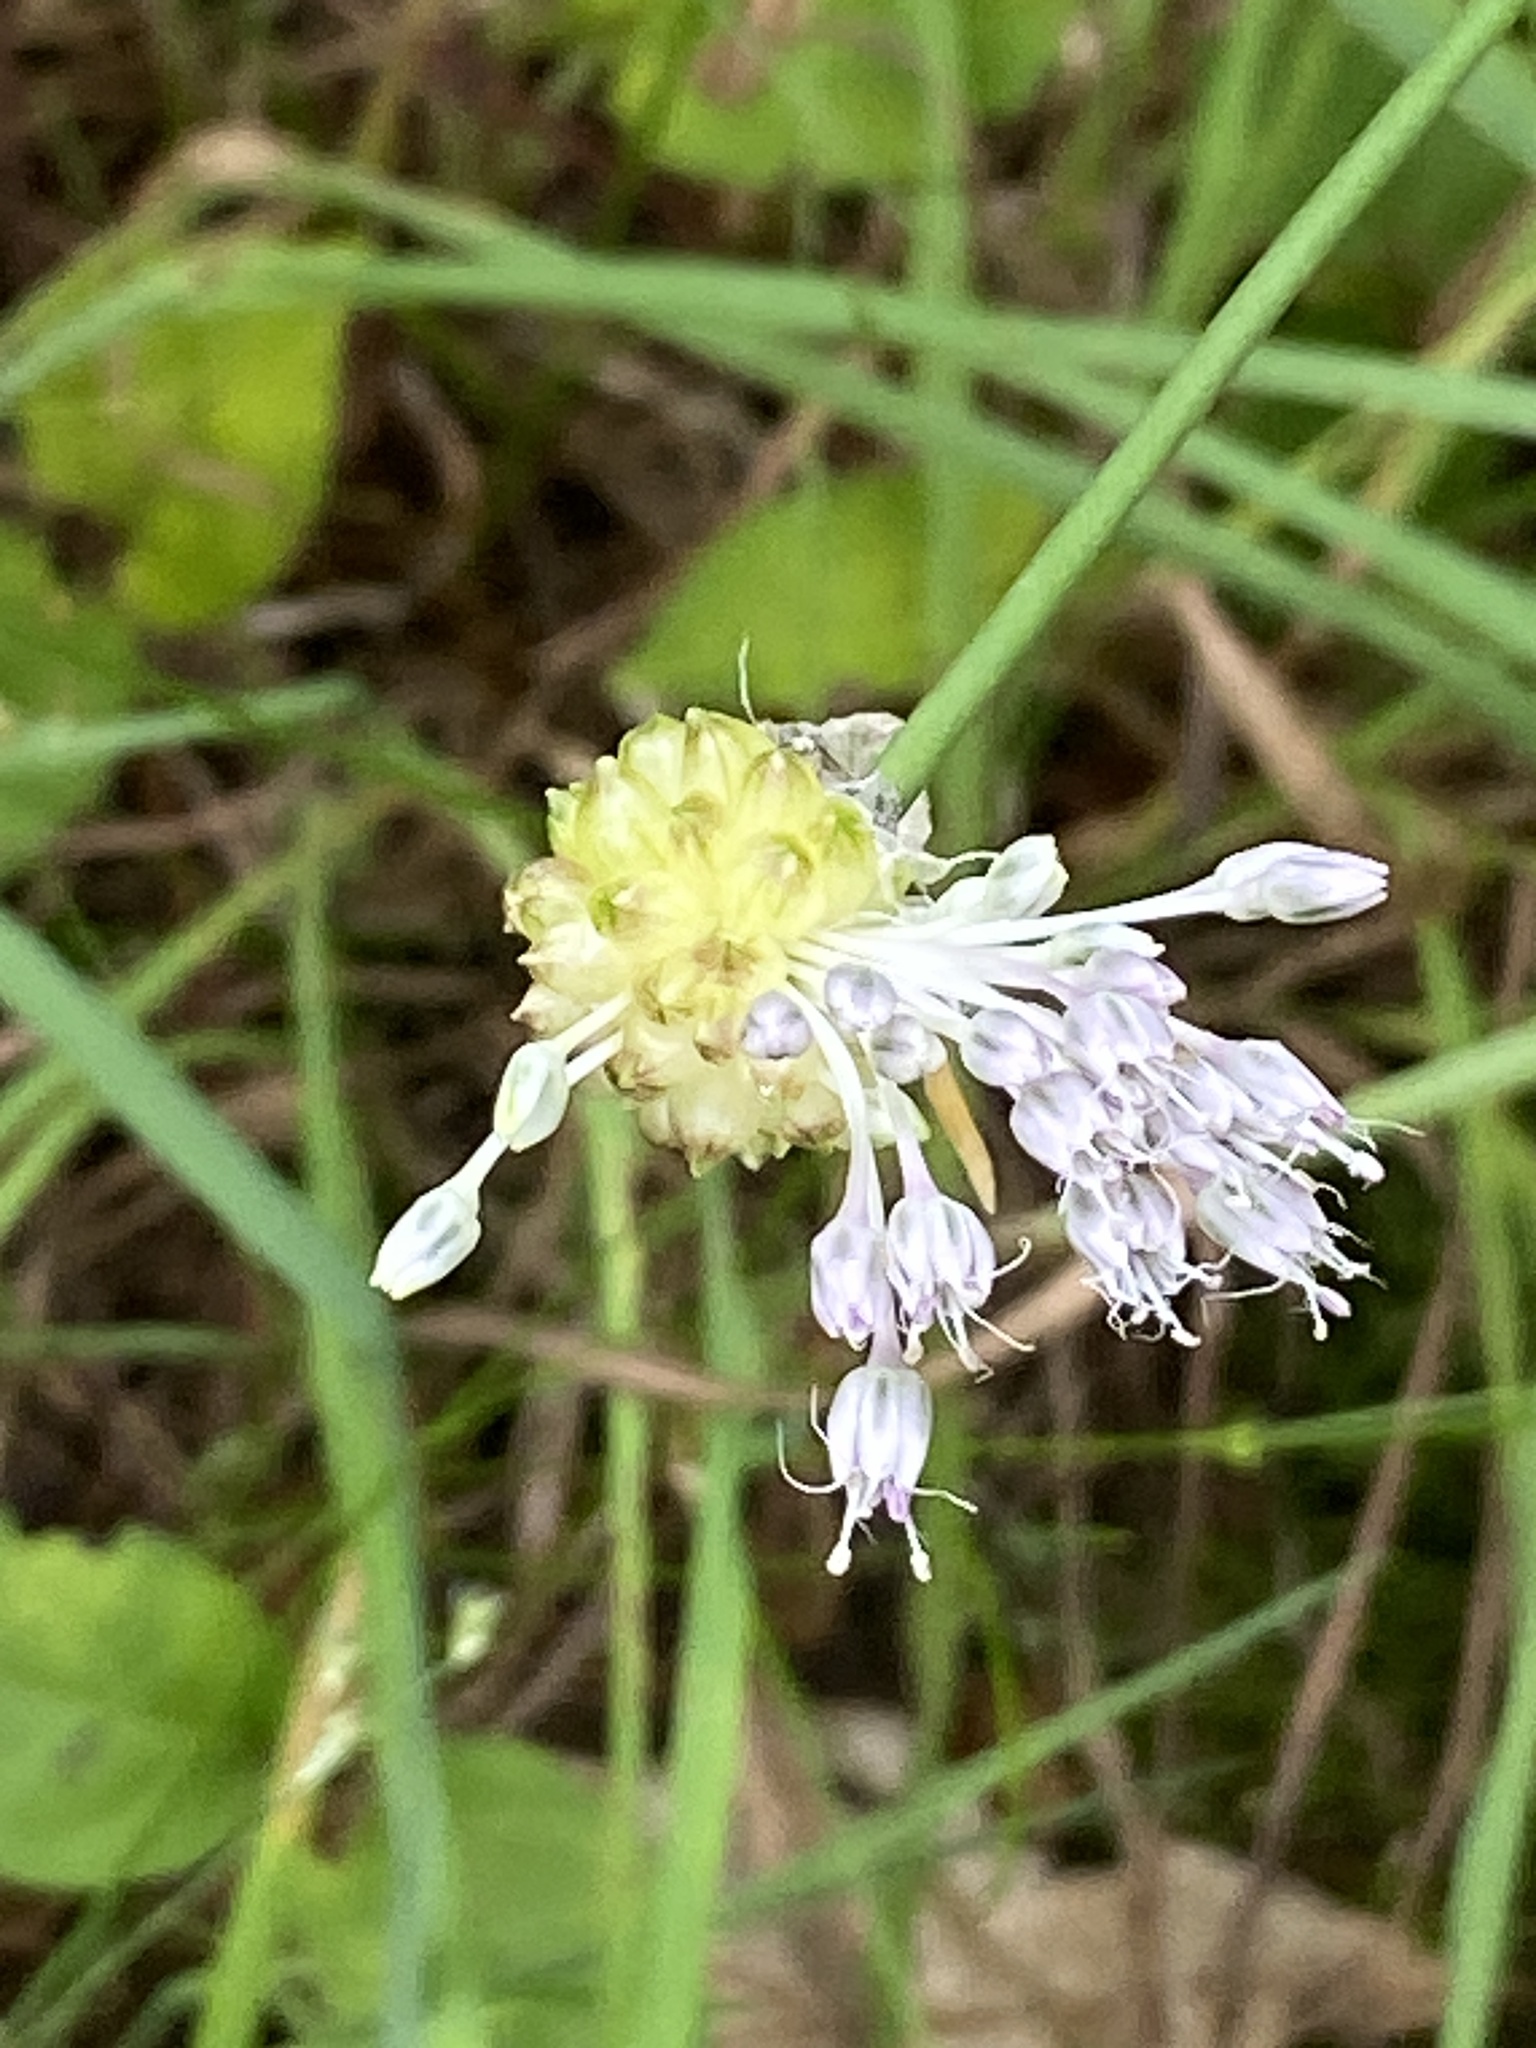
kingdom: Plantae
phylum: Tracheophyta
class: Liliopsida
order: Asparagales
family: Amaryllidaceae
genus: Allium
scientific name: Allium vineale
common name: Crow garlic
